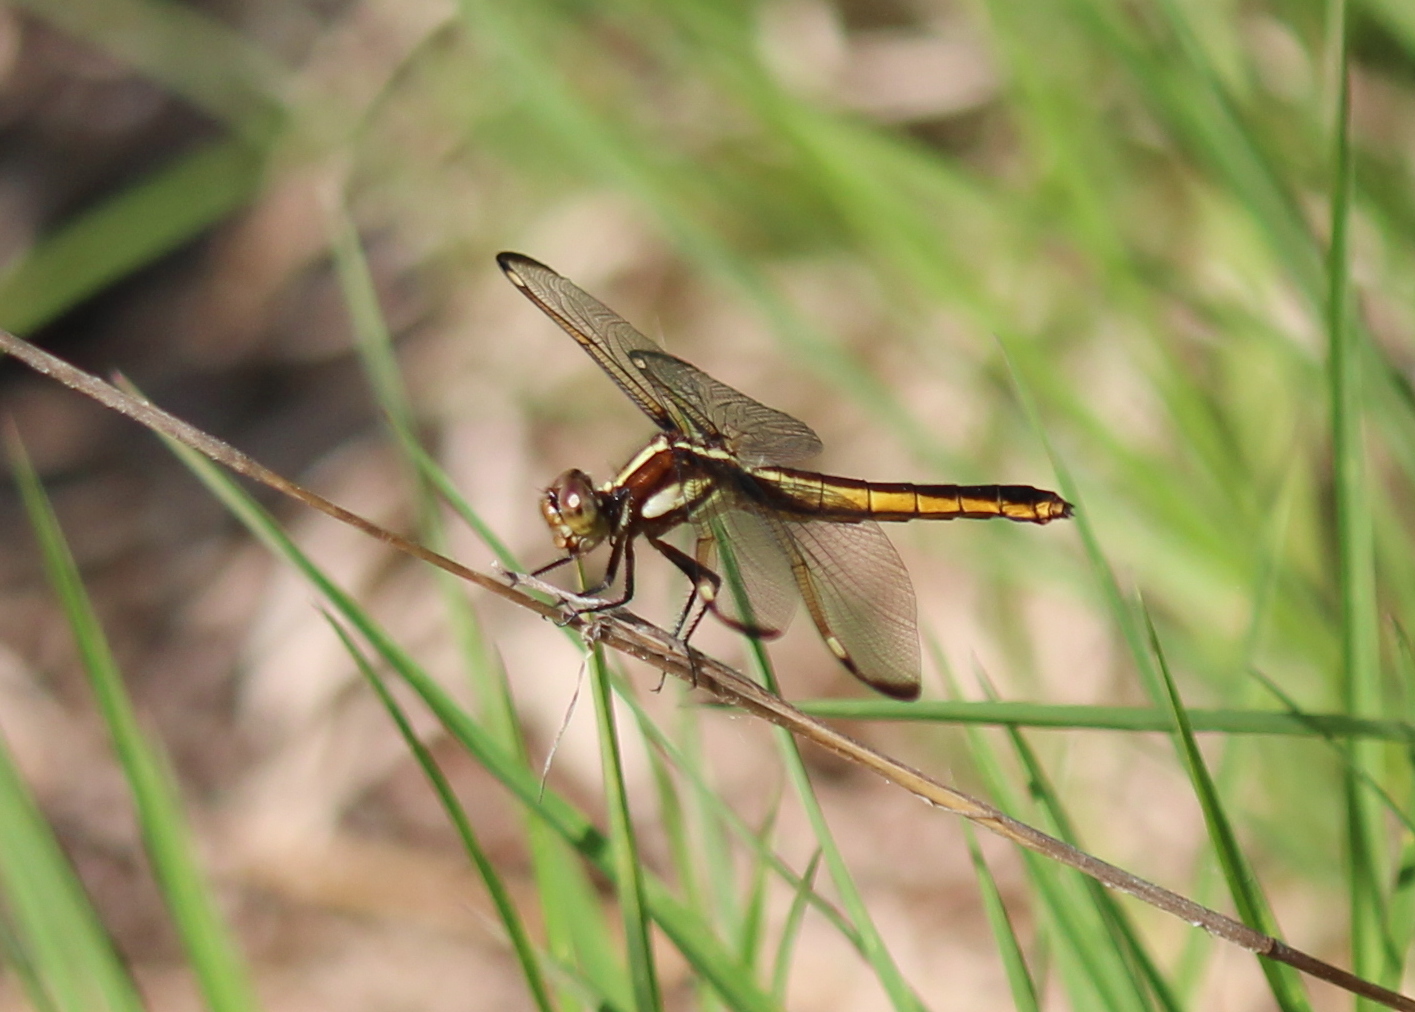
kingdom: Animalia
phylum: Arthropoda
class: Insecta
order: Odonata
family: Libellulidae
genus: Libellula
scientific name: Libellula cyanea
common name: Spangled skimmer
